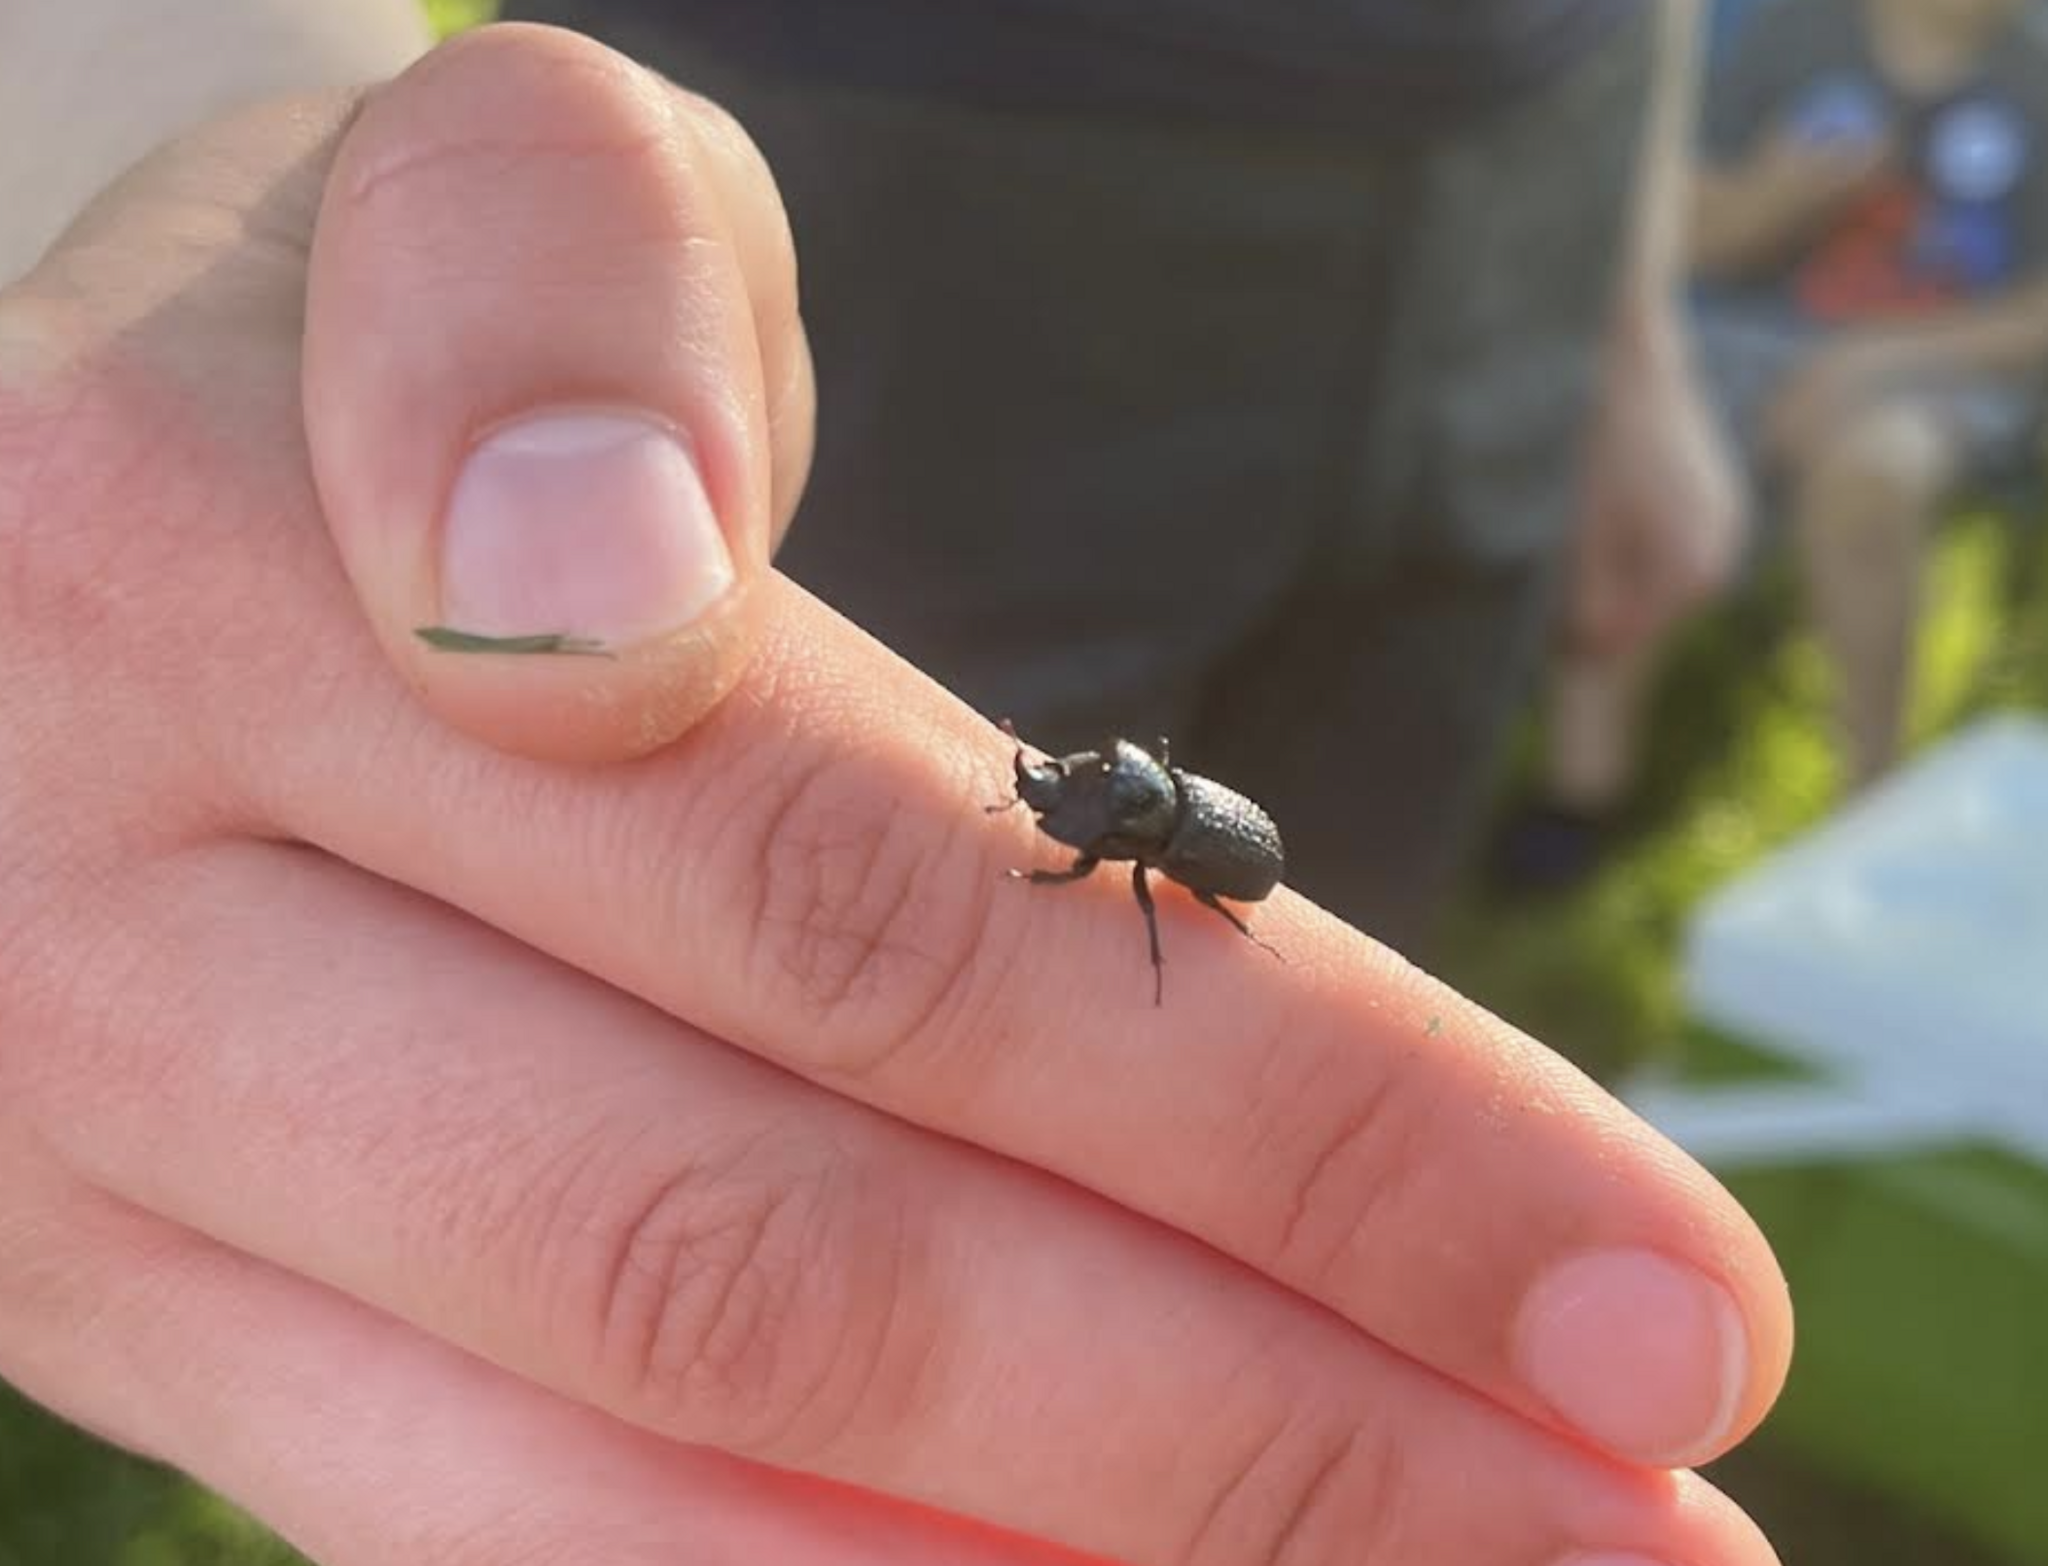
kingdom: Animalia
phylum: Arthropoda
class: Insecta
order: Coleoptera
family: Lucanidae
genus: Sinodendron
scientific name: Sinodendron rugosum
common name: Rugose stag beelte
